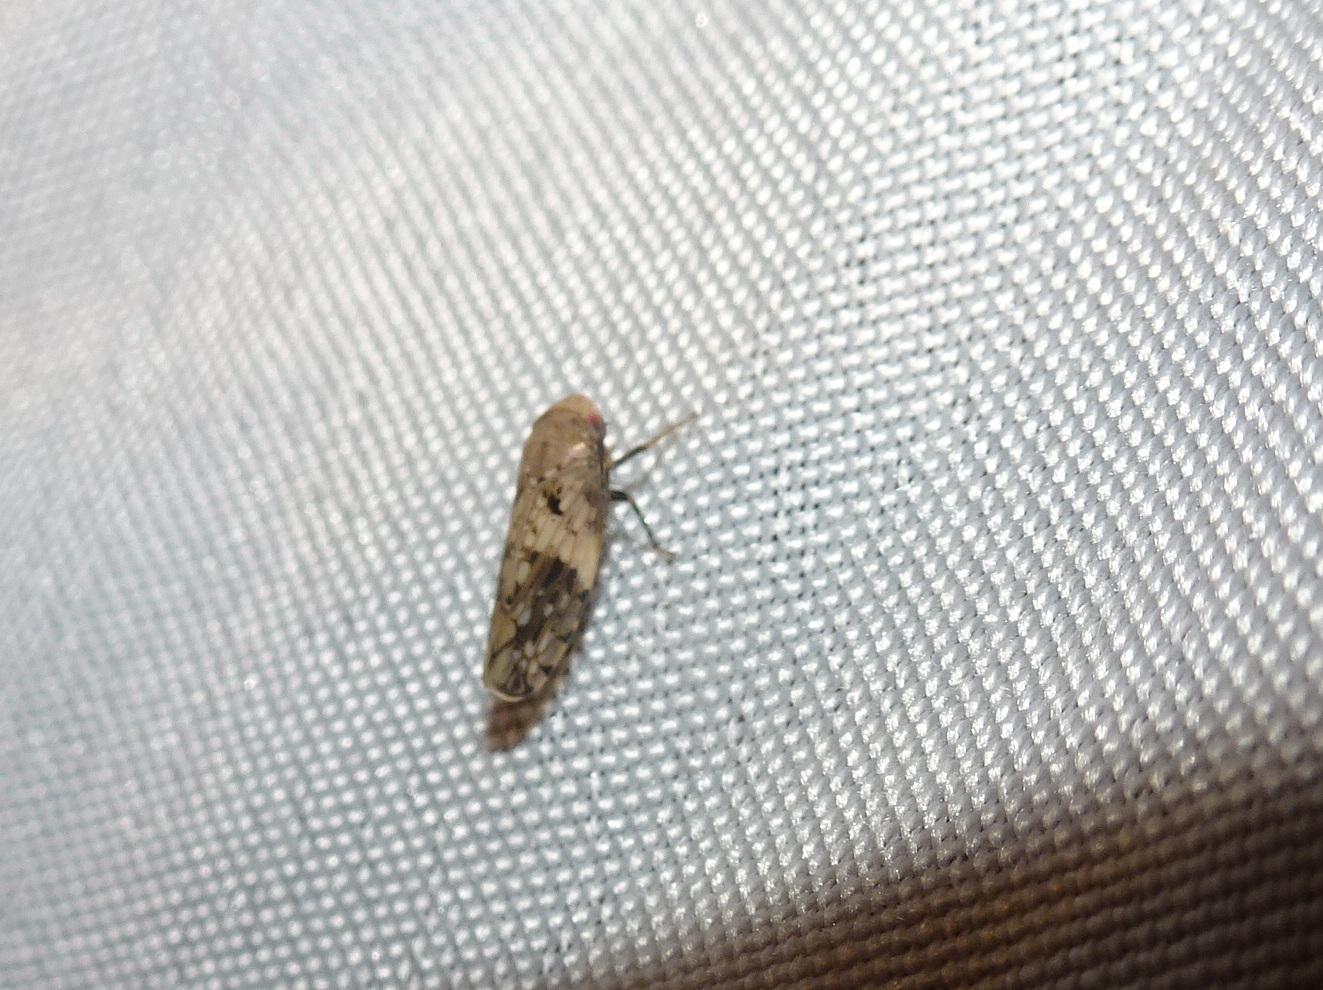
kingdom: Animalia
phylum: Arthropoda
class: Insecta
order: Hemiptera
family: Cicadellidae
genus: Menosoma
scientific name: Menosoma cinctum
